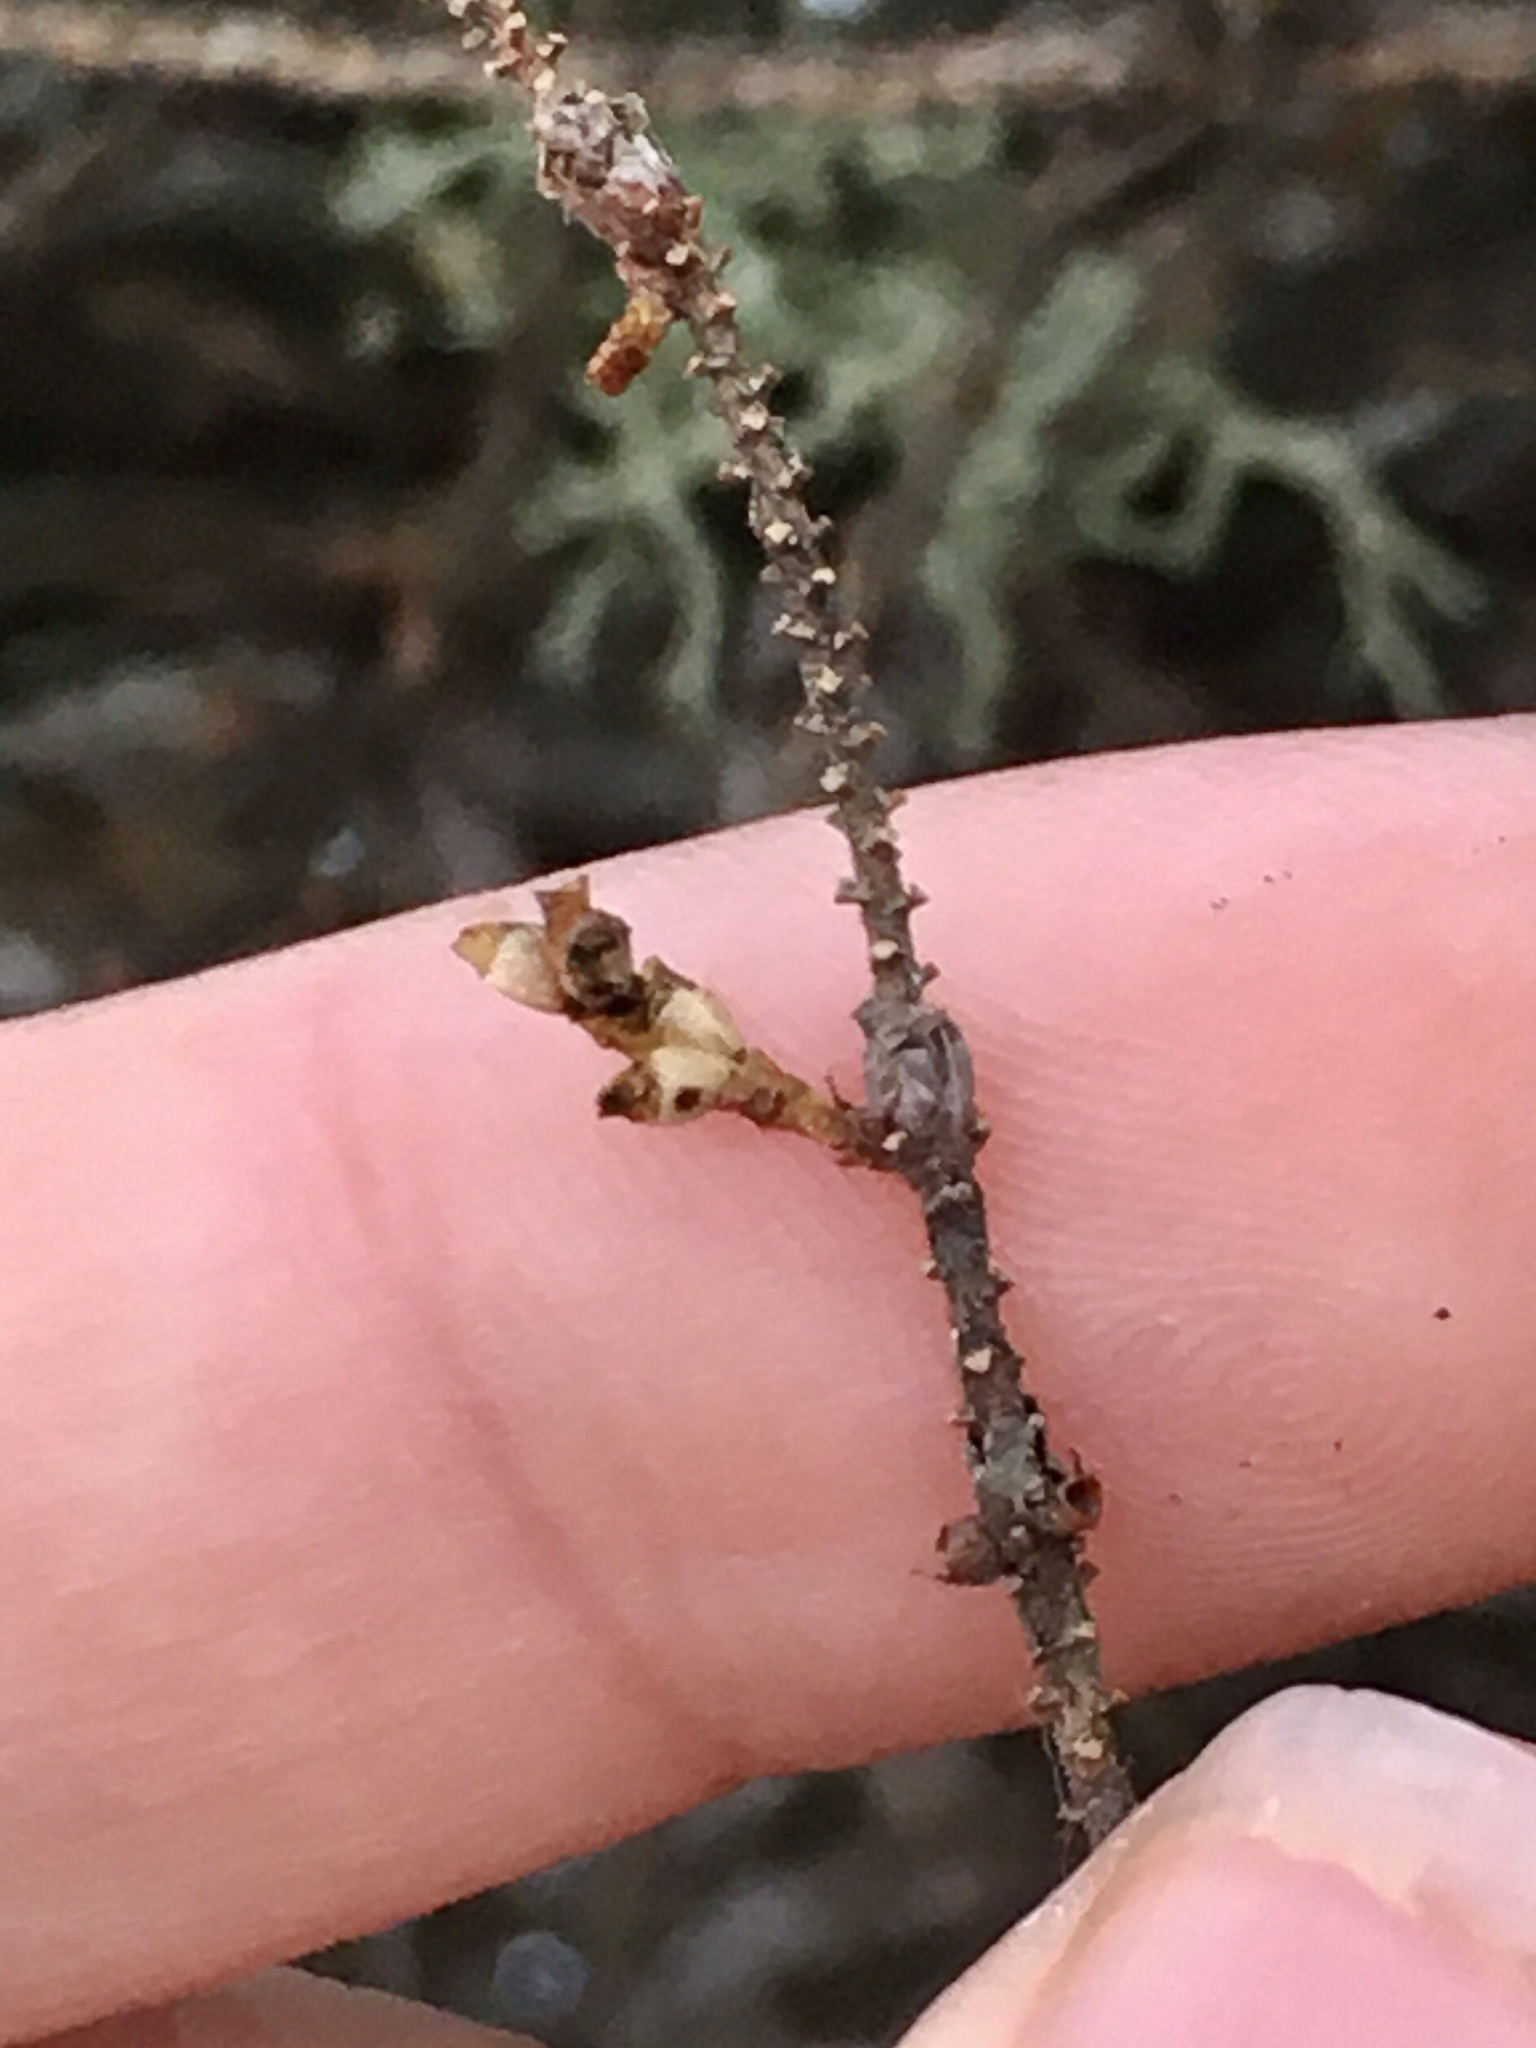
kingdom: Plantae
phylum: Tracheophyta
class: Magnoliopsida
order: Santalales
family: Viscaceae
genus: Arceuthobium
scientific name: Arceuthobium pusillum
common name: Dwarf-mistletoe
